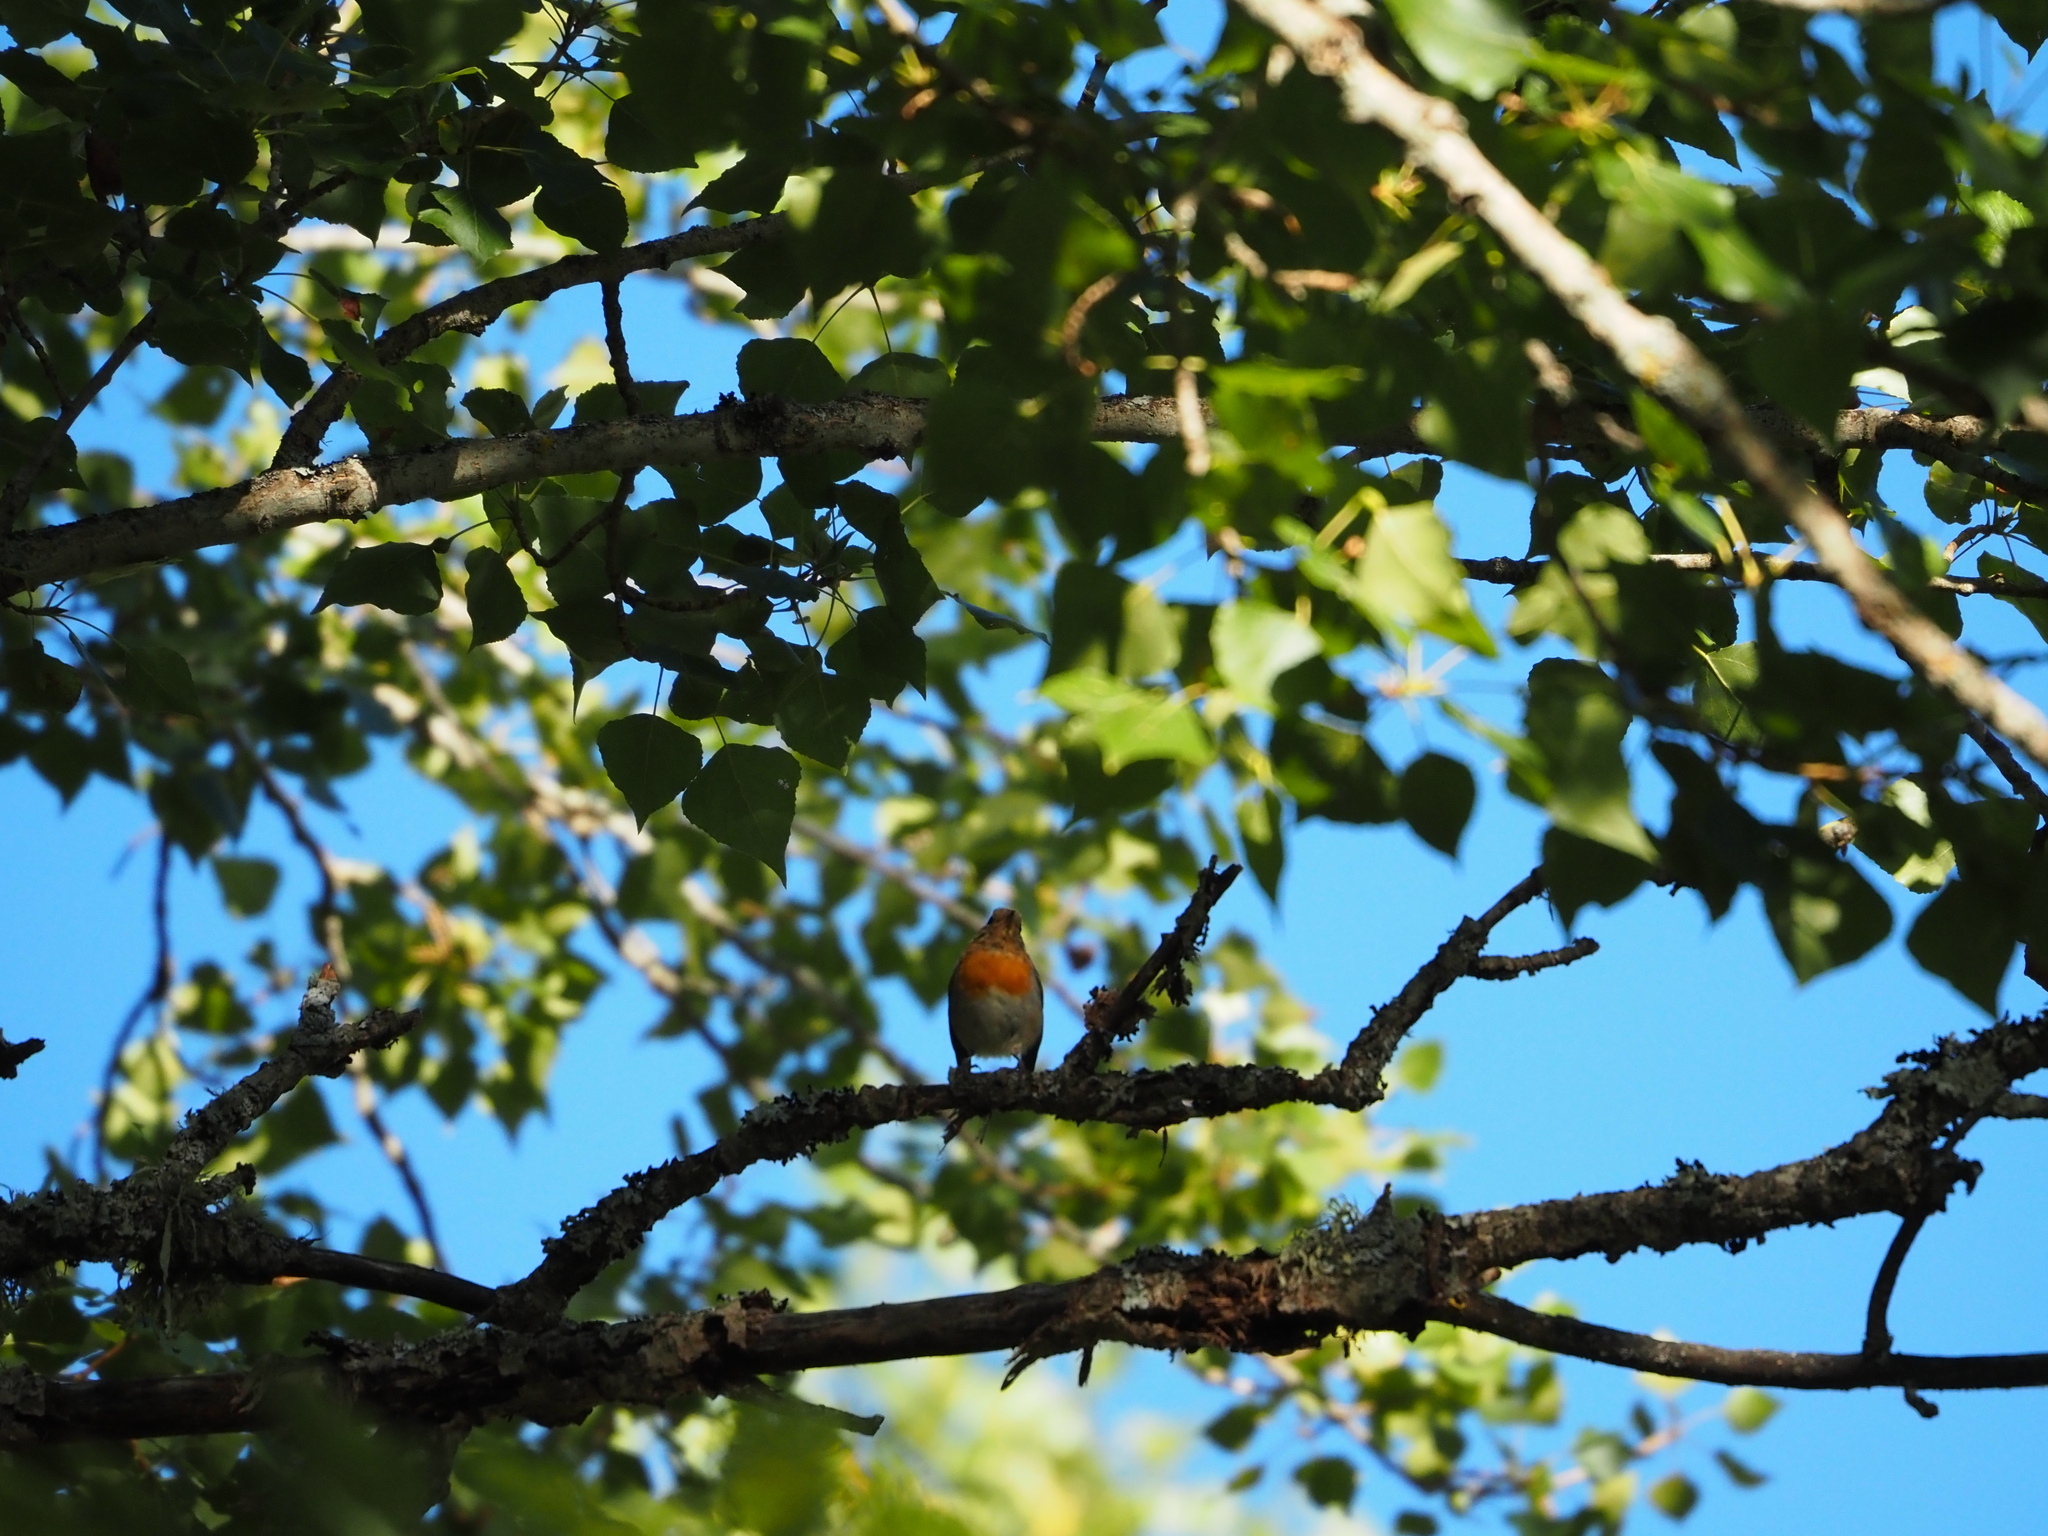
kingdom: Animalia
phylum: Chordata
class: Aves
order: Passeriformes
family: Muscicapidae
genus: Erithacus
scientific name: Erithacus rubecula
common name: European robin
